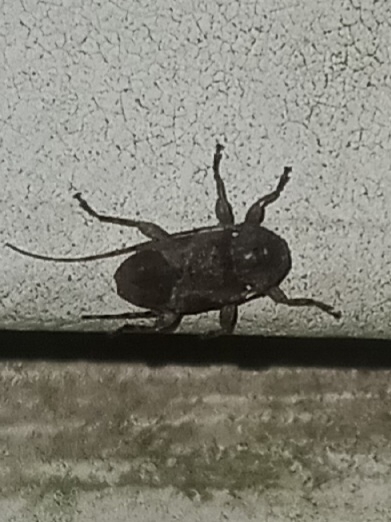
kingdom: Animalia
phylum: Arthropoda
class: Insecta
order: Coleoptera
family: Cerambycidae
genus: Styloleptus
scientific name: Styloleptus biustus
